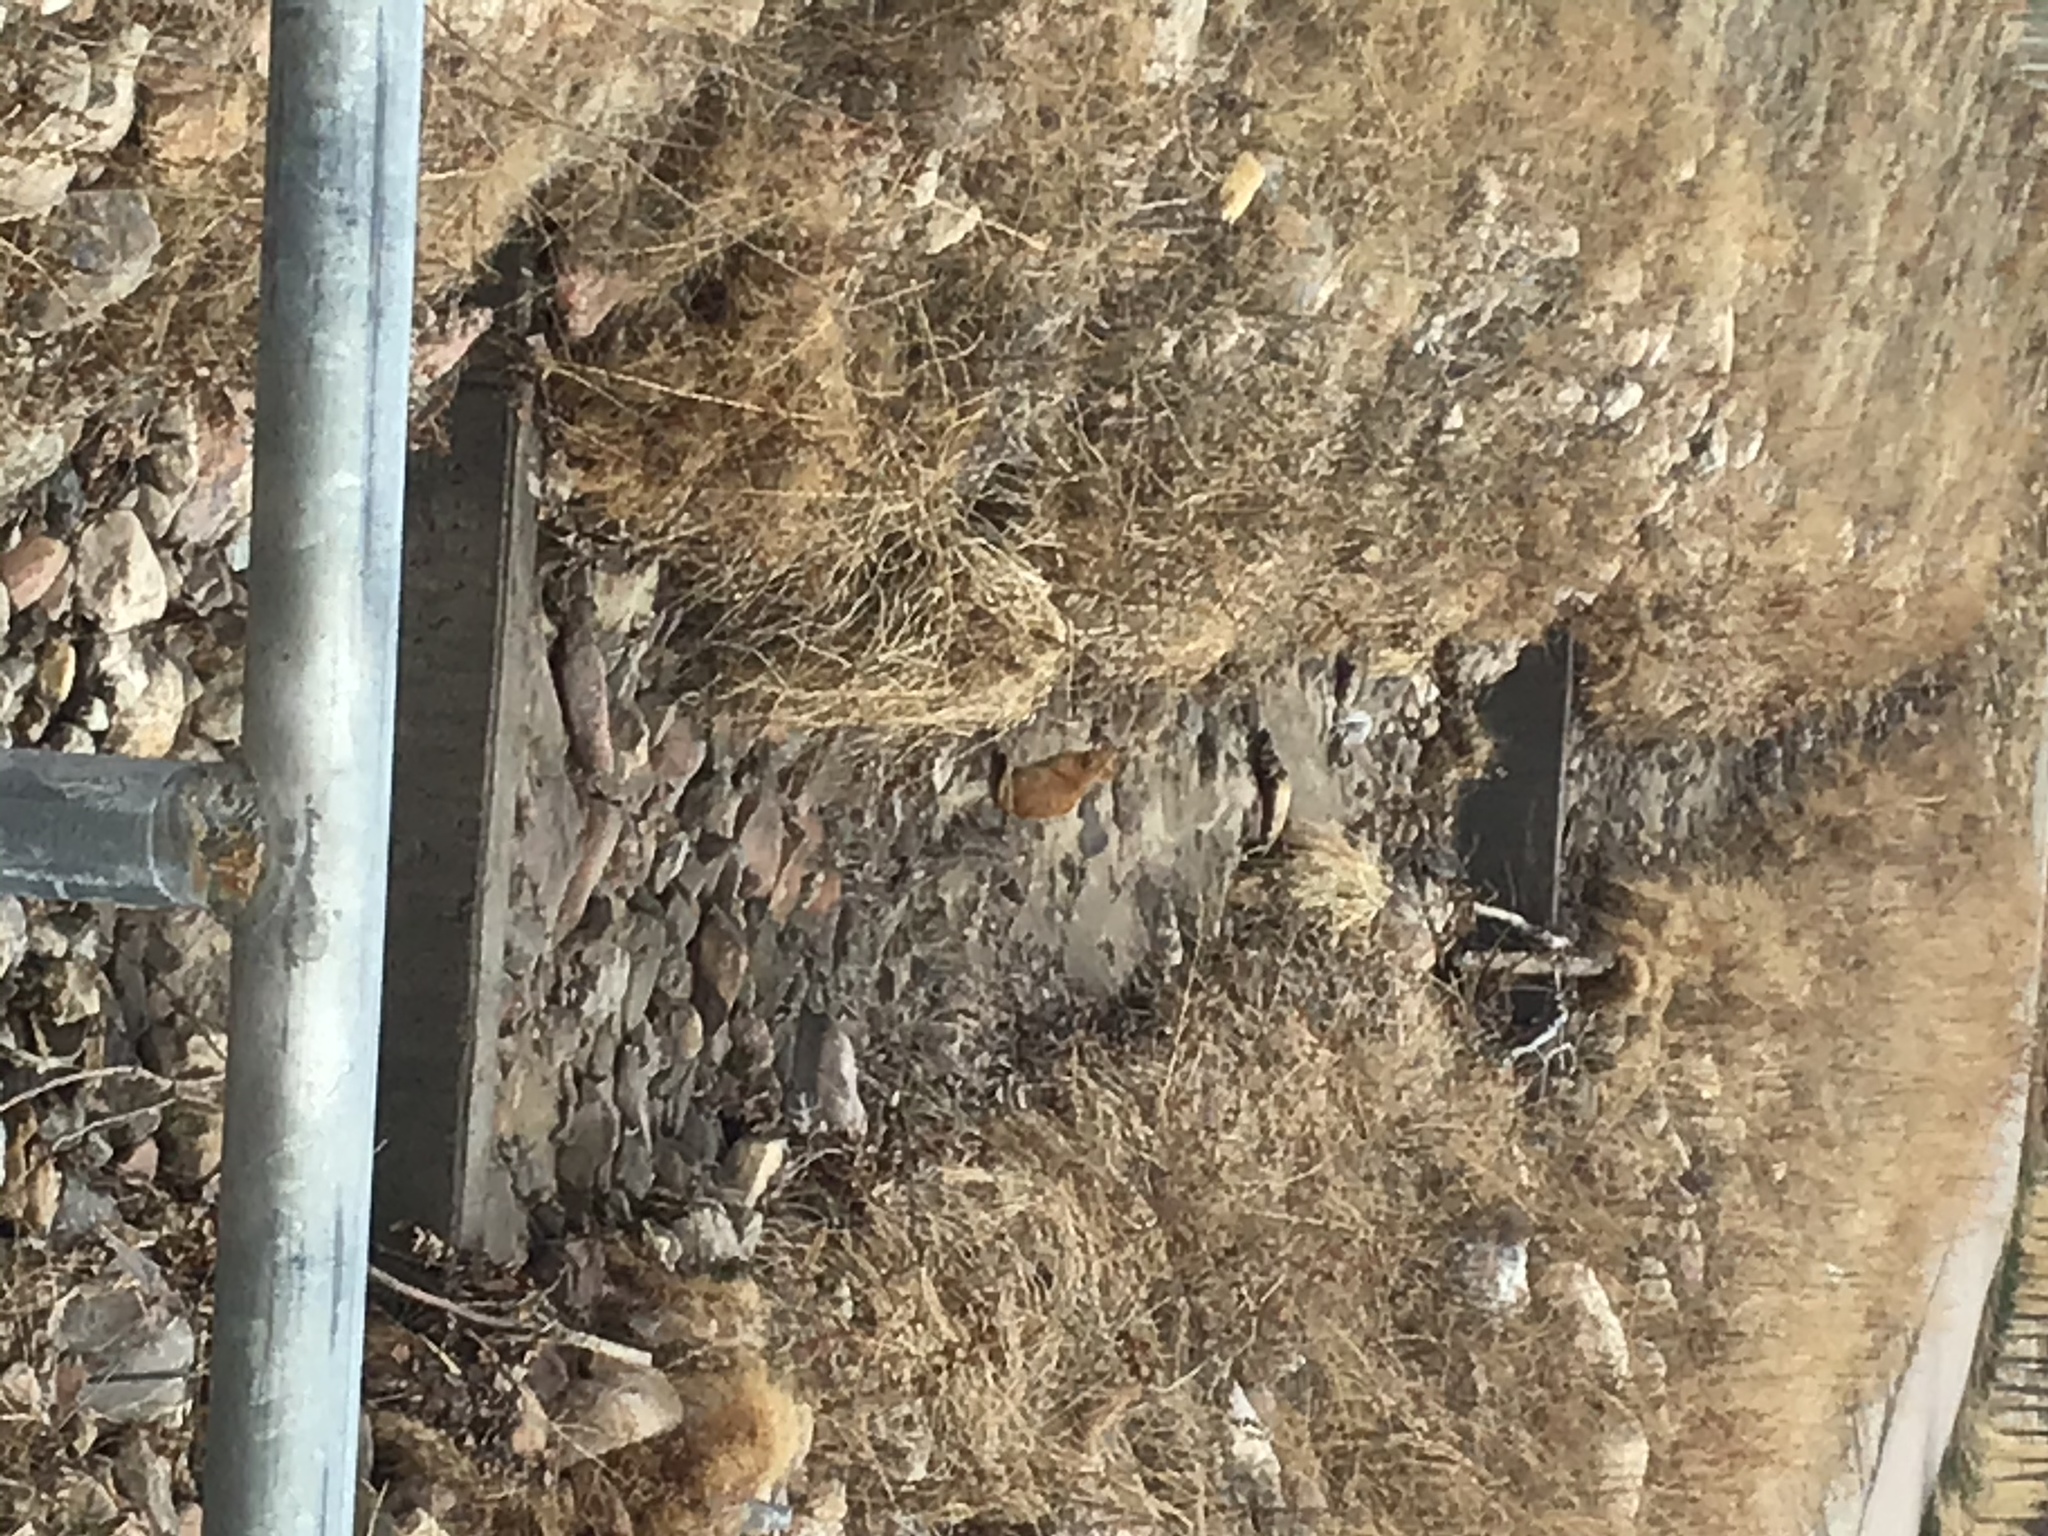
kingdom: Animalia
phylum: Chordata
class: Mammalia
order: Carnivora
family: Felidae
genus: Felis
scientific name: Felis catus
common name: Domestic cat
